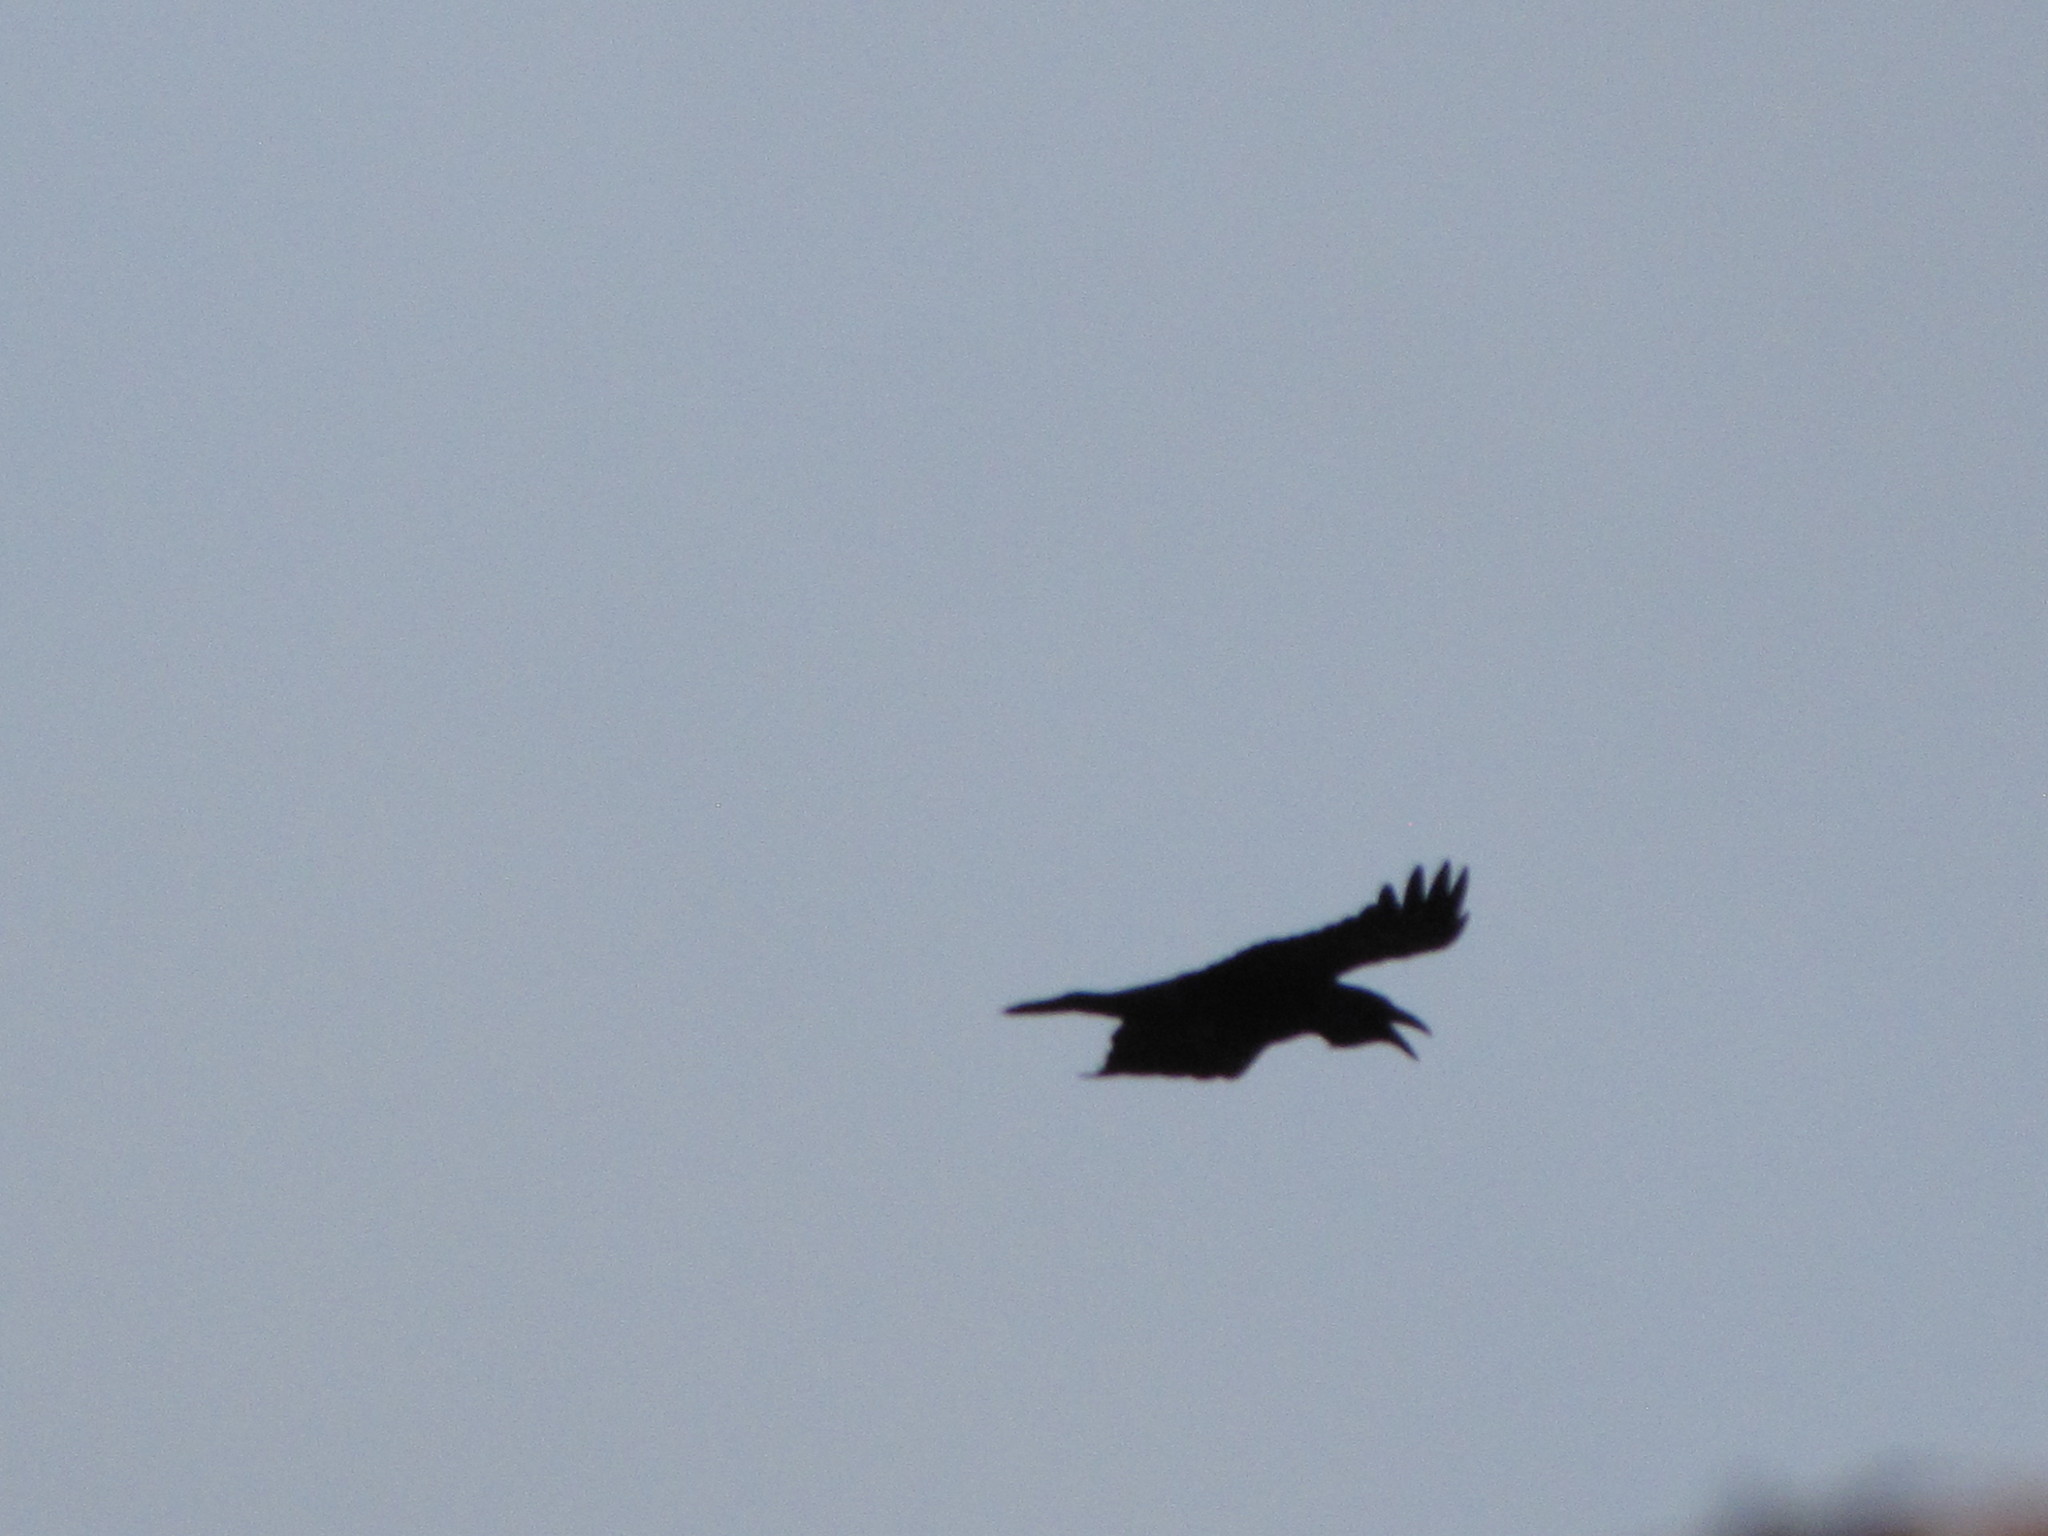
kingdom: Animalia
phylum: Chordata
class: Aves
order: Passeriformes
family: Corvidae
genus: Corvus
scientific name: Corvus corax
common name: Common raven
